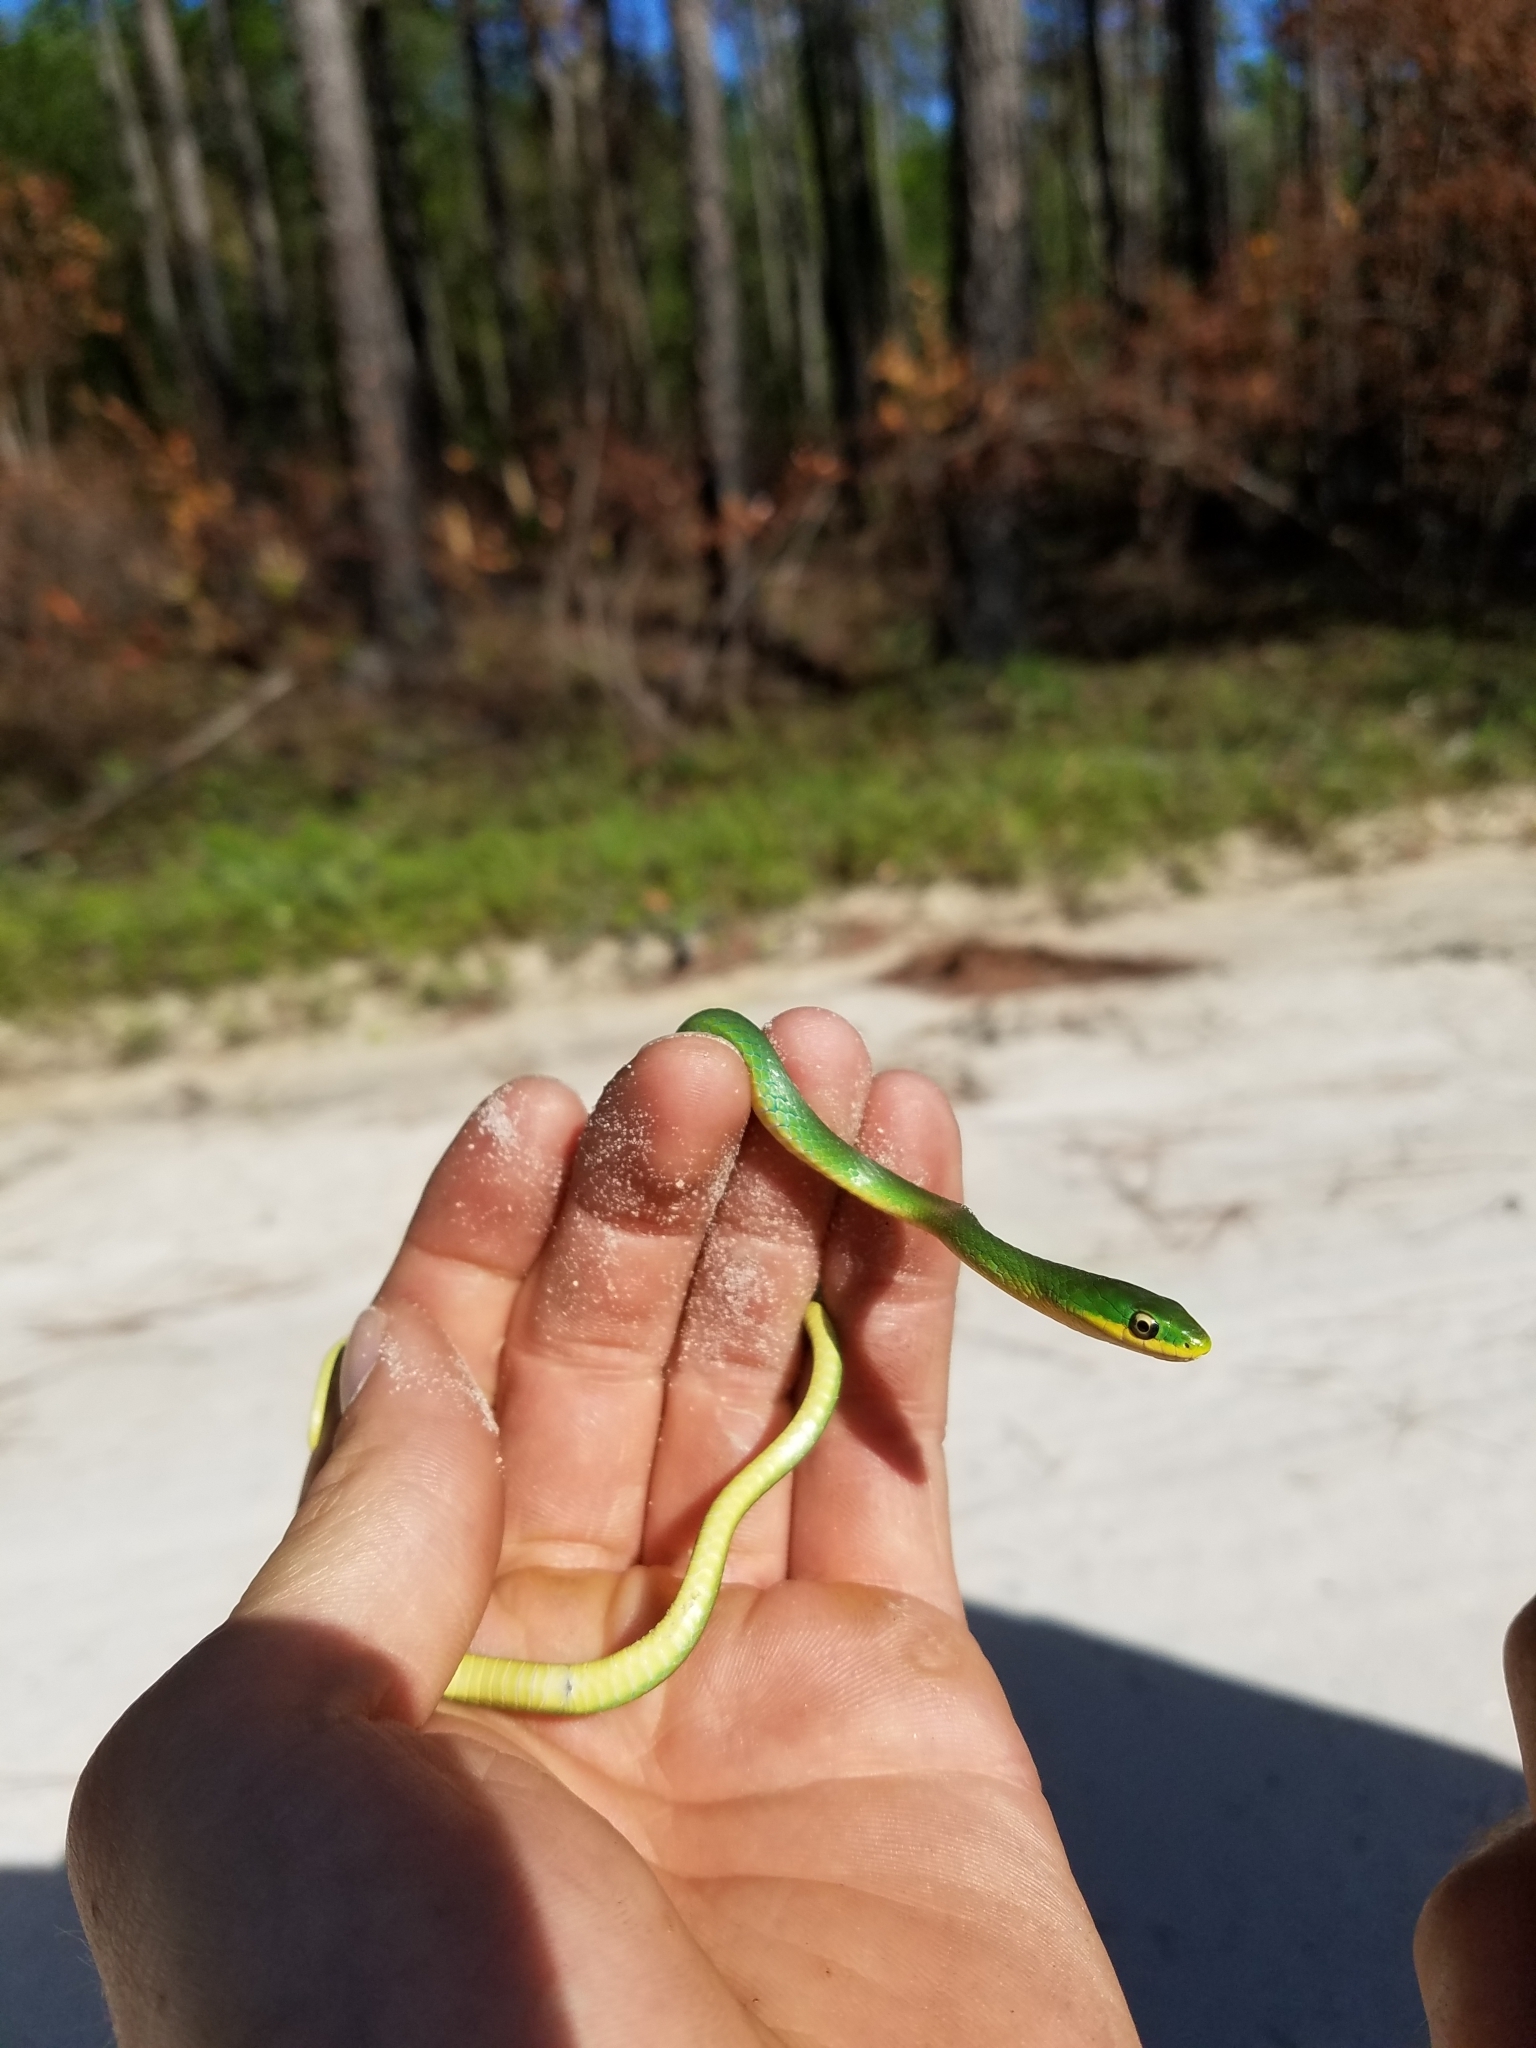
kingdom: Animalia
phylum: Chordata
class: Squamata
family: Colubridae
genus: Opheodrys
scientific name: Opheodrys aestivus
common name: Rough greensnake
